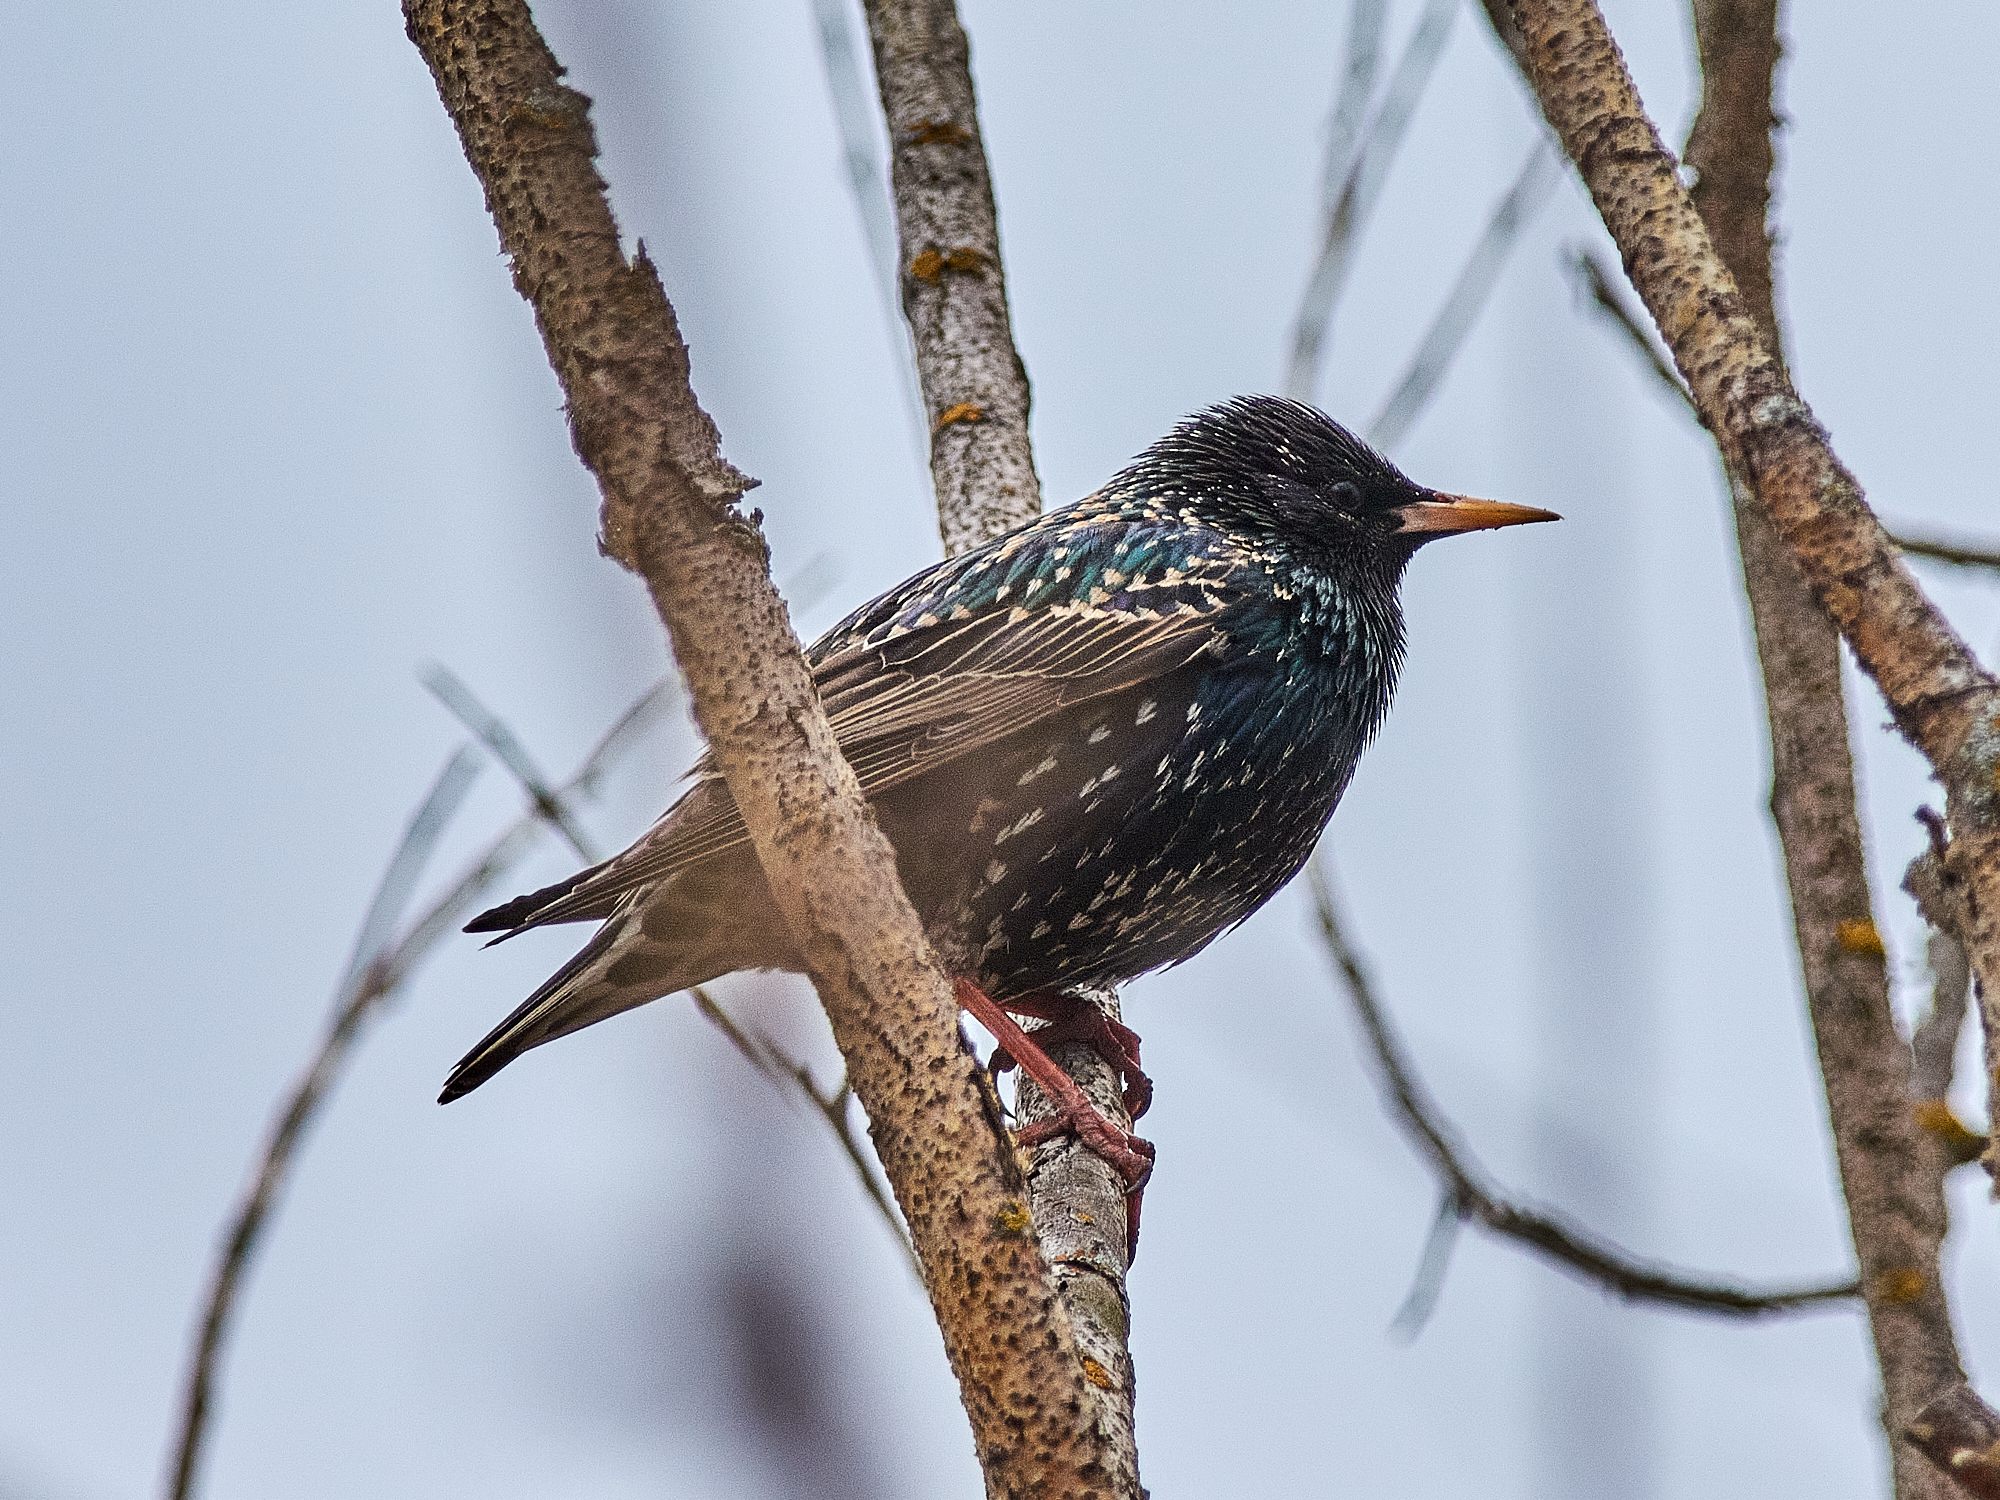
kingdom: Animalia
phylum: Chordata
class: Aves
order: Passeriformes
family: Sturnidae
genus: Sturnus
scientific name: Sturnus vulgaris
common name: Common starling
